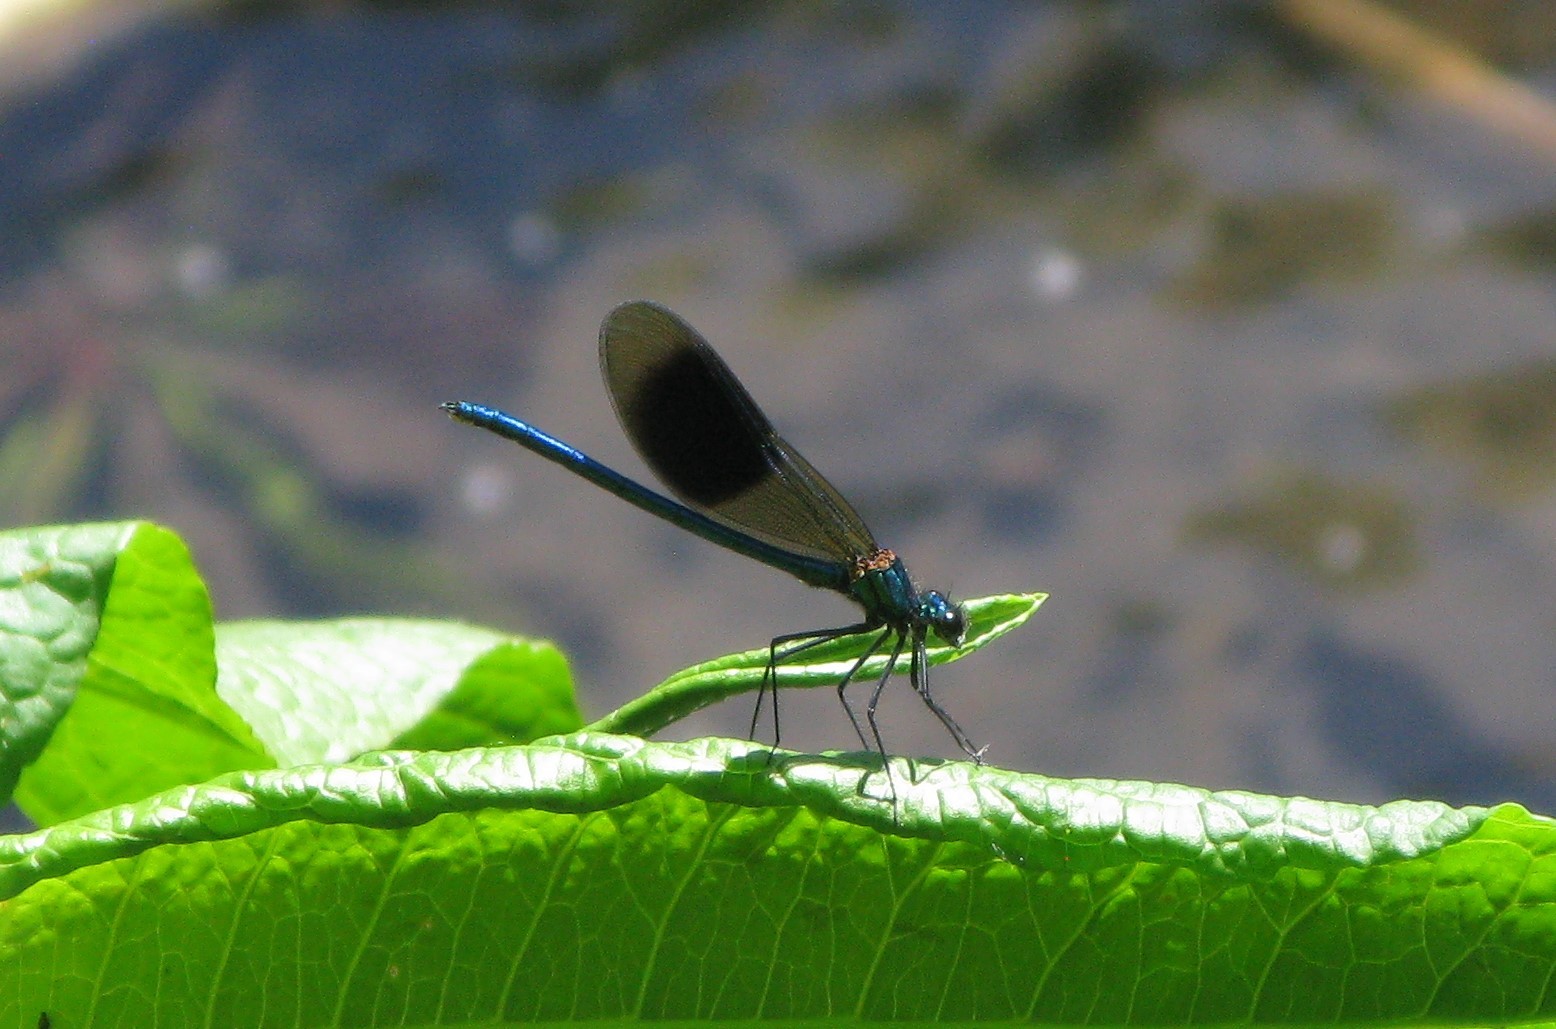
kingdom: Animalia
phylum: Arthropoda
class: Insecta
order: Odonata
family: Calopterygidae
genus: Calopteryx
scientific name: Calopteryx splendens
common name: Banded demoiselle
